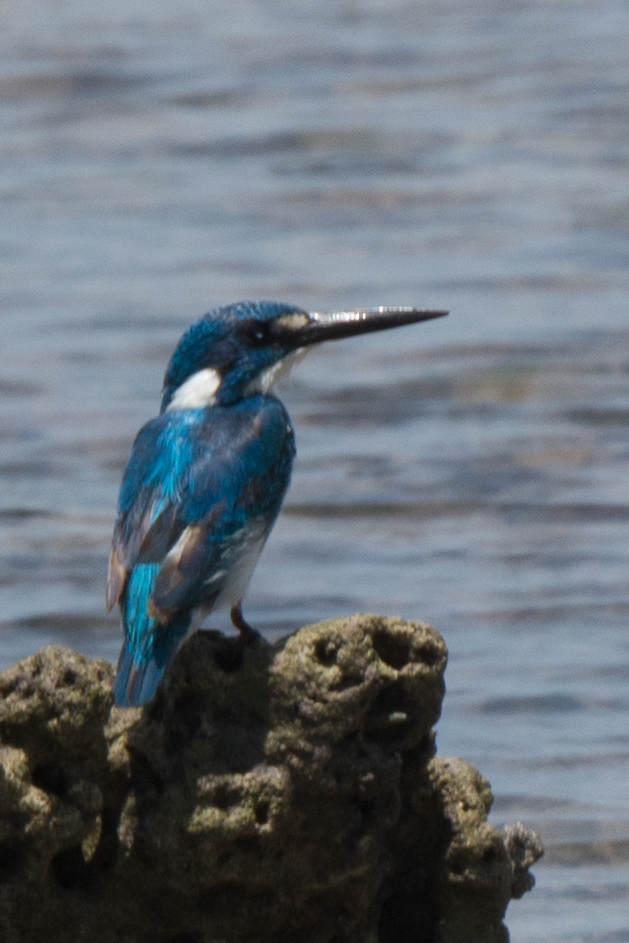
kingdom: Animalia
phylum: Chordata
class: Aves
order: Coraciiformes
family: Alcedinidae
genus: Alcedo
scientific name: Alcedo coerulescens
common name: Cerulean kingfisher
